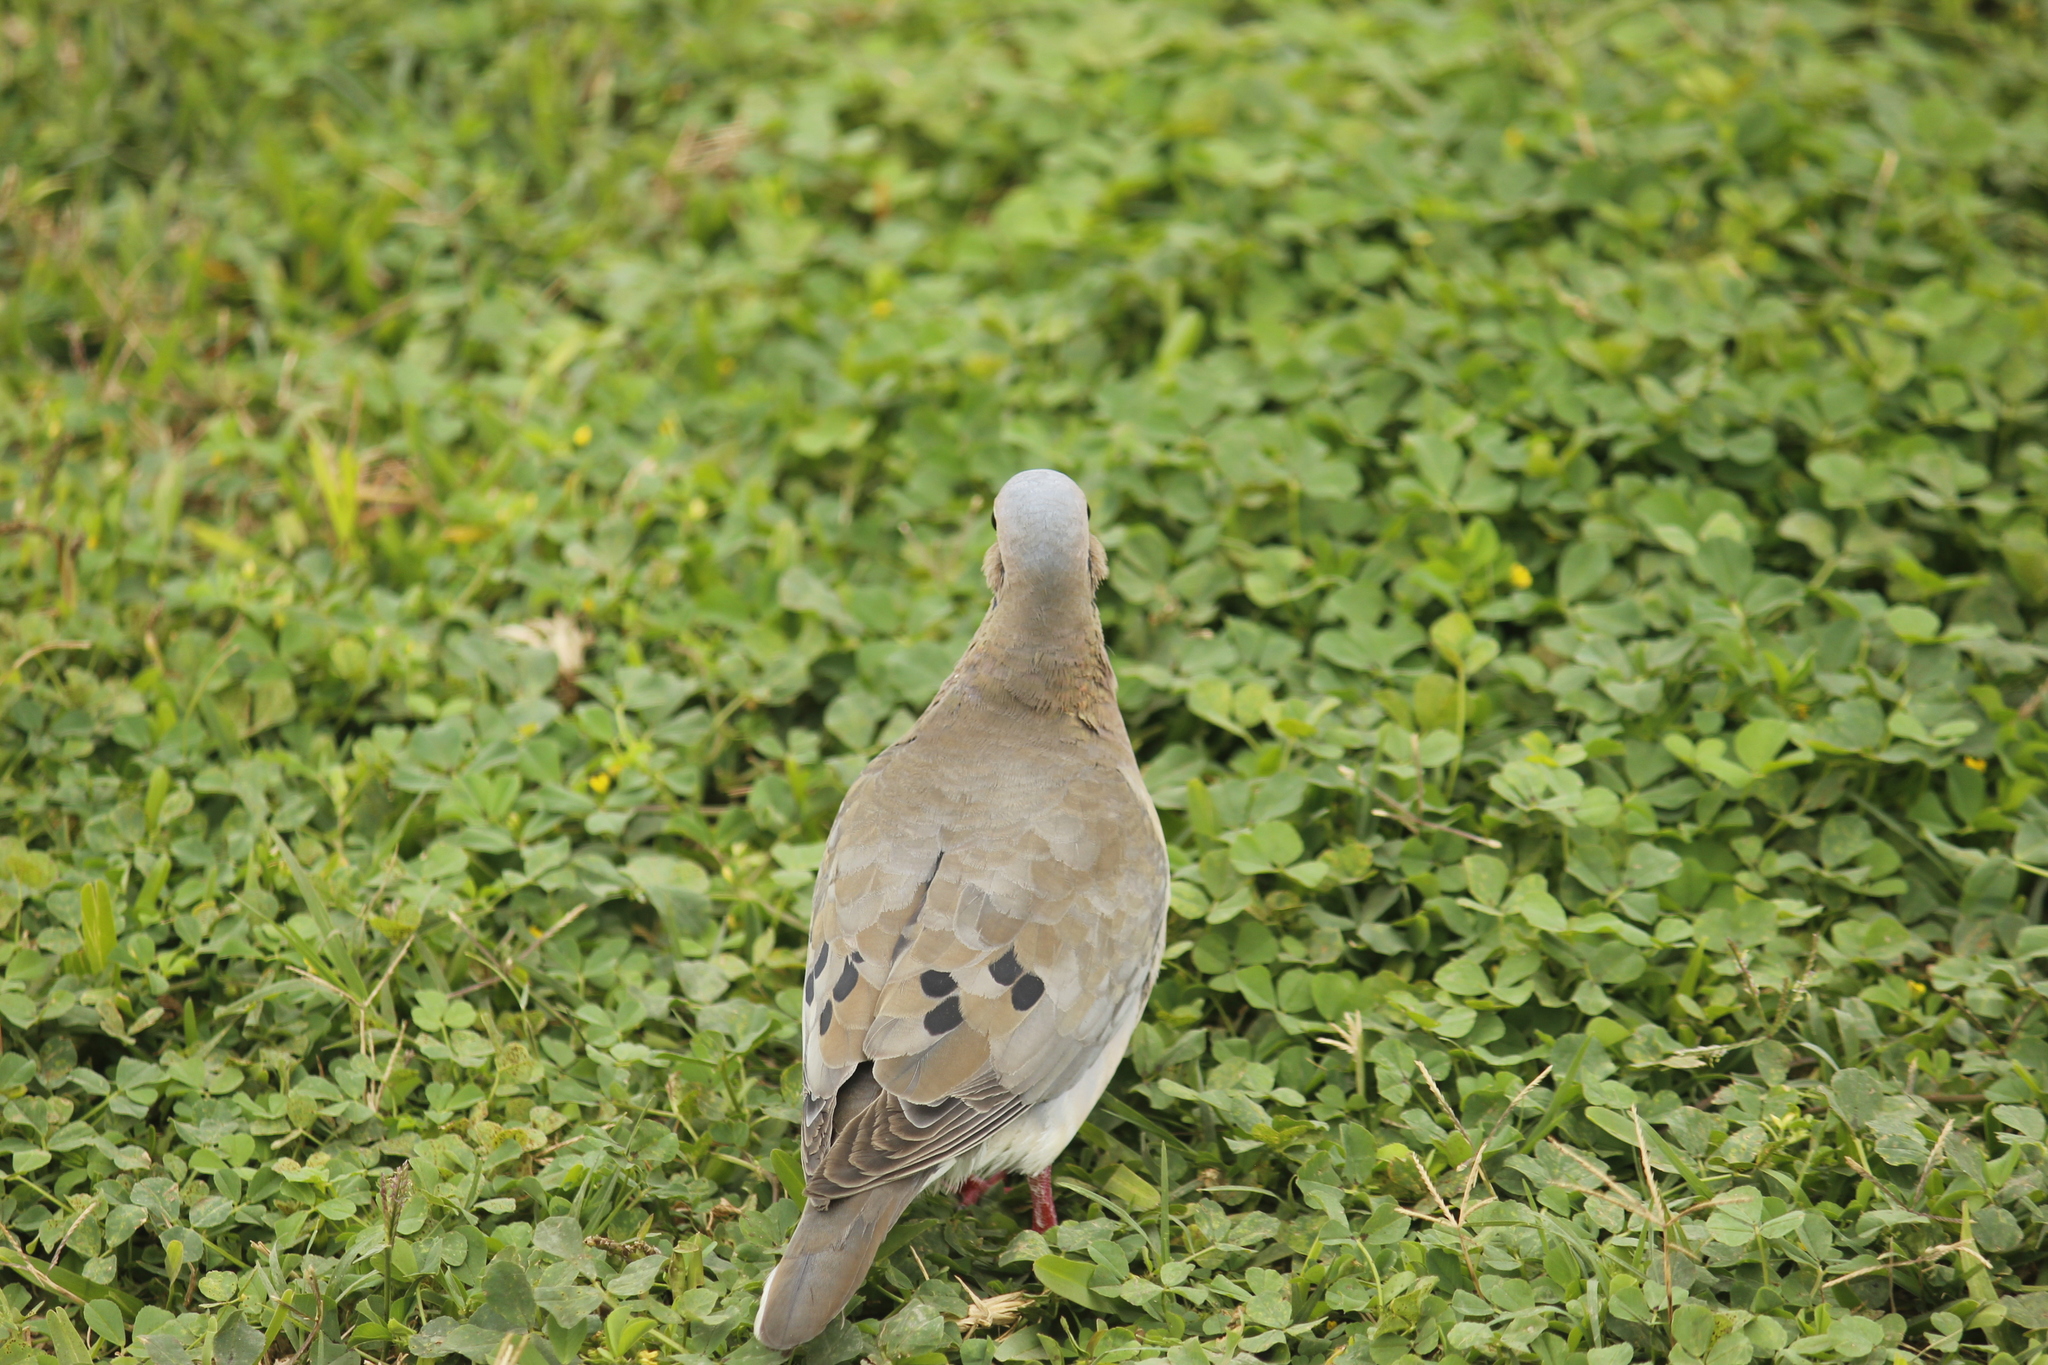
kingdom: Animalia
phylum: Chordata
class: Aves
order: Columbiformes
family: Columbidae
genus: Zenaida
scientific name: Zenaida auriculata
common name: Eared dove
